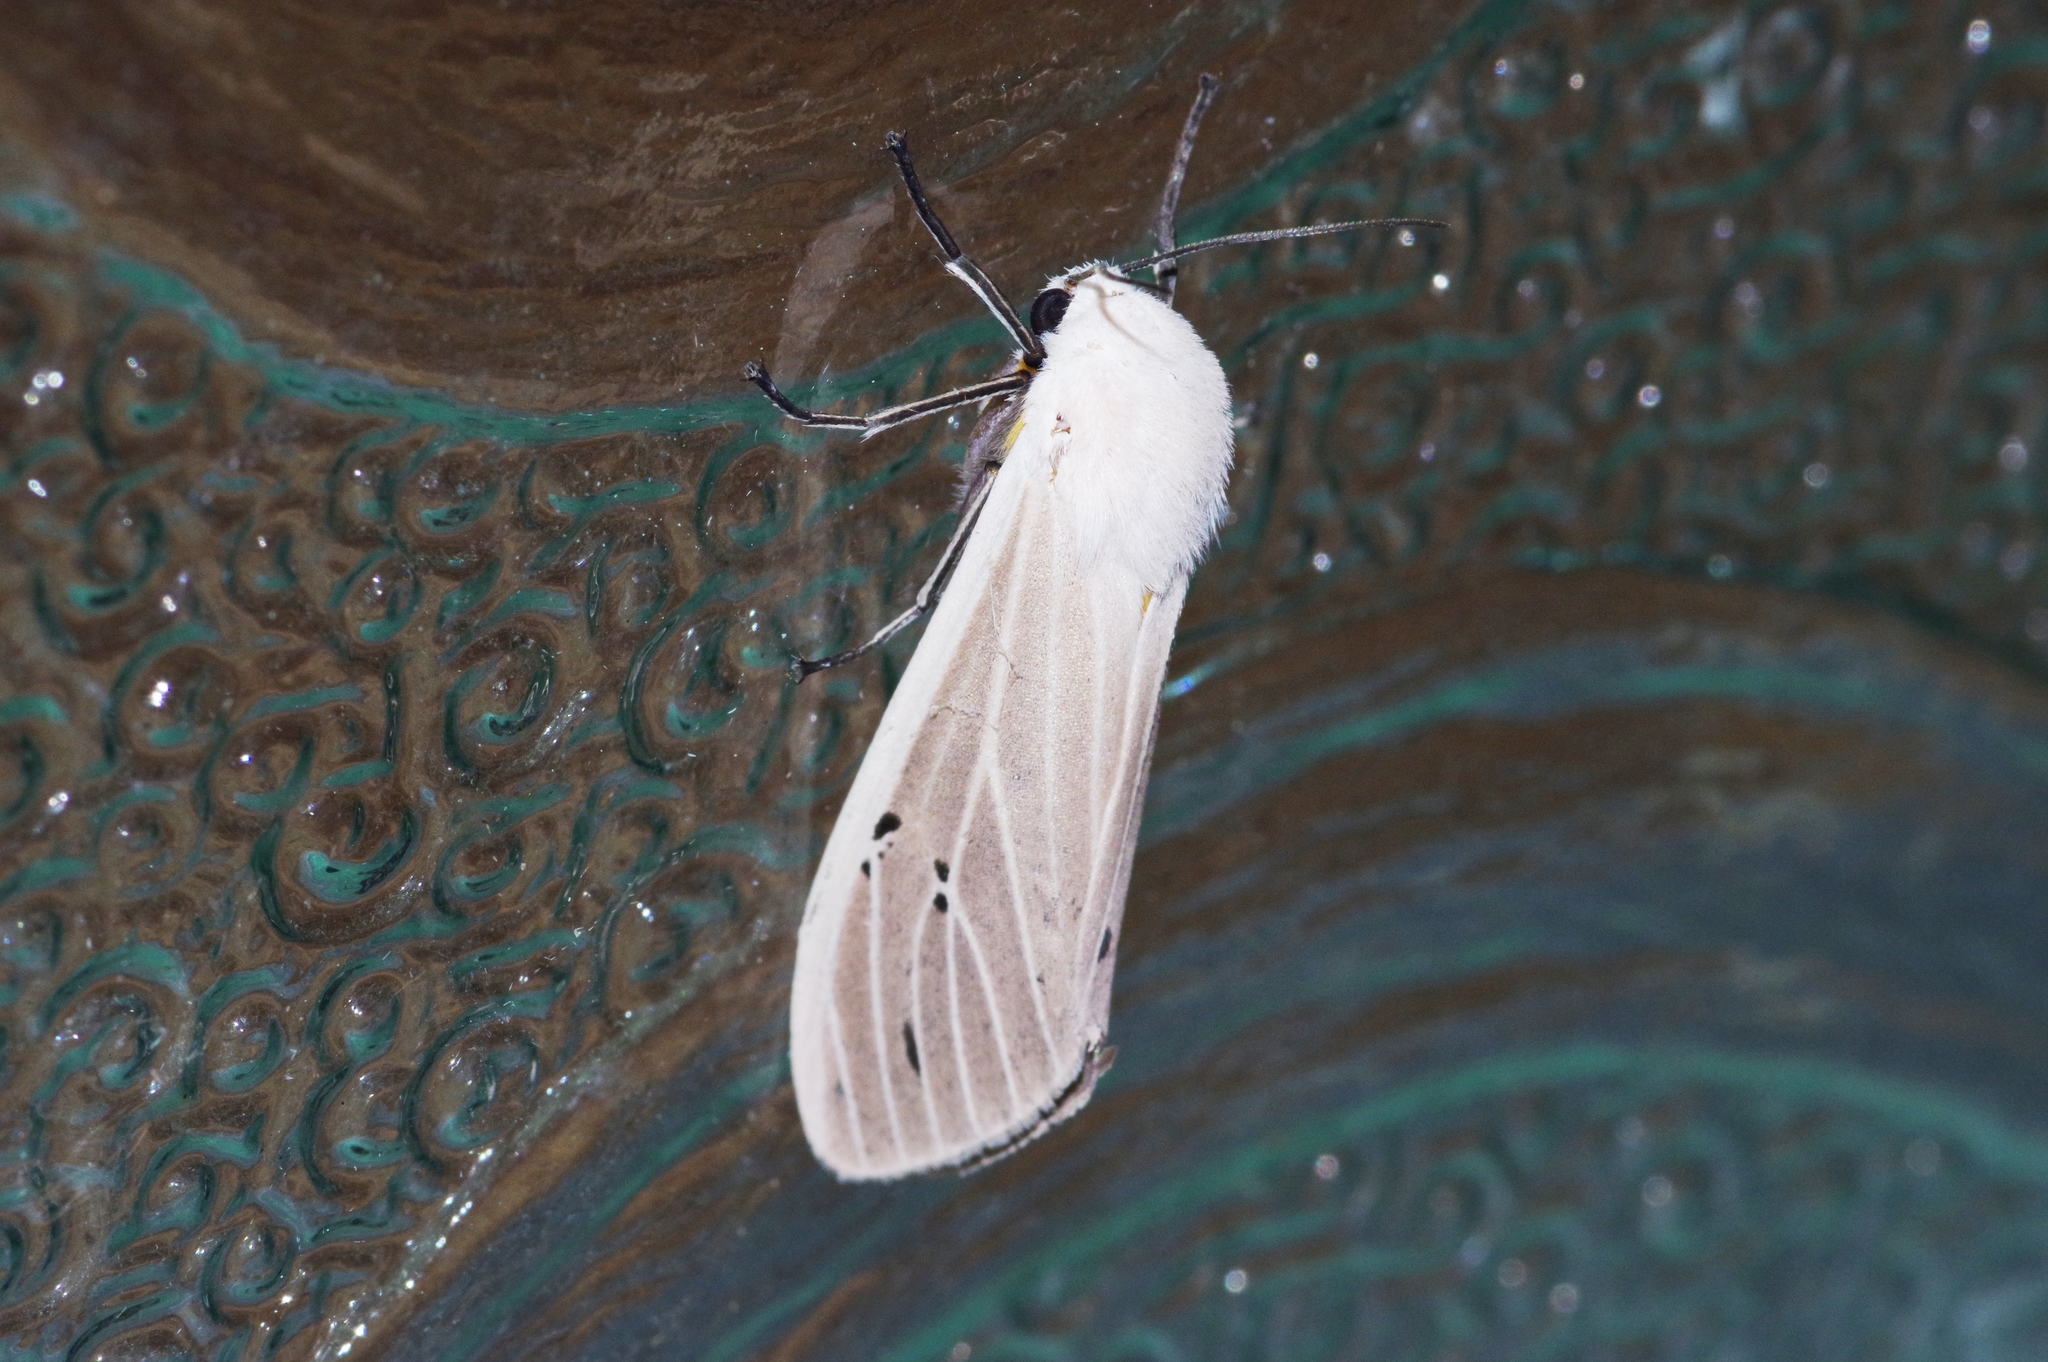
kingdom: Animalia
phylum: Arthropoda
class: Insecta
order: Lepidoptera
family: Erebidae
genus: Creatonotos
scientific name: Creatonotos transiens
